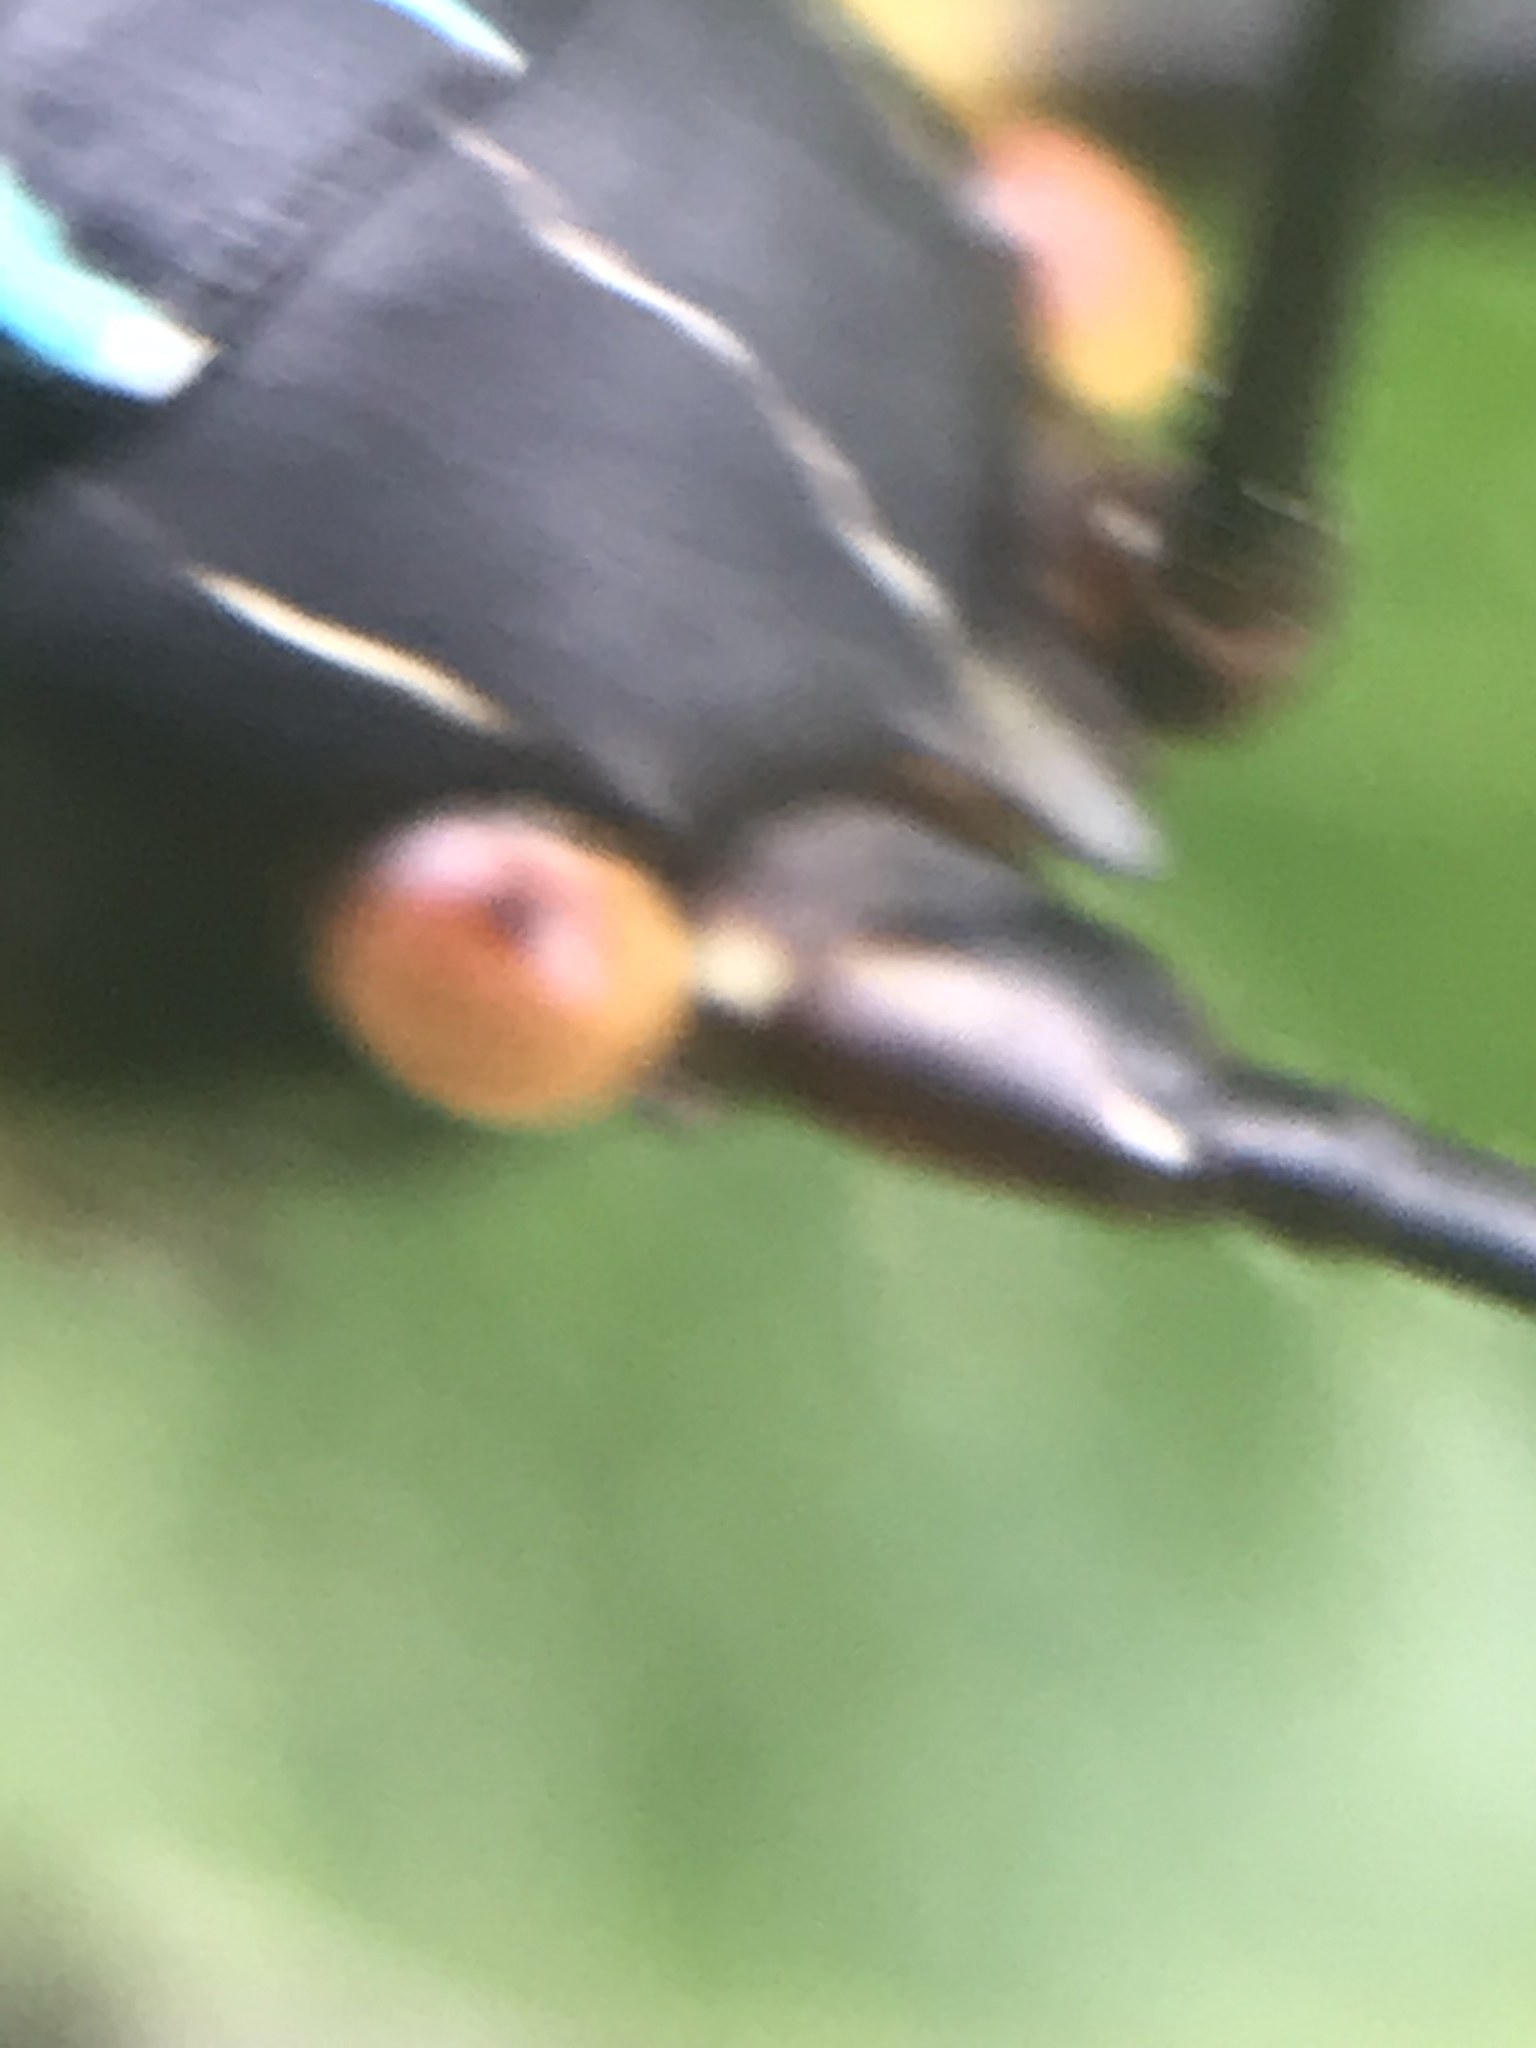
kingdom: Animalia
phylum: Arthropoda
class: Insecta
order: Orthoptera
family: Tettigoniidae
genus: Pterophylla
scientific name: Pterophylla beltrani
